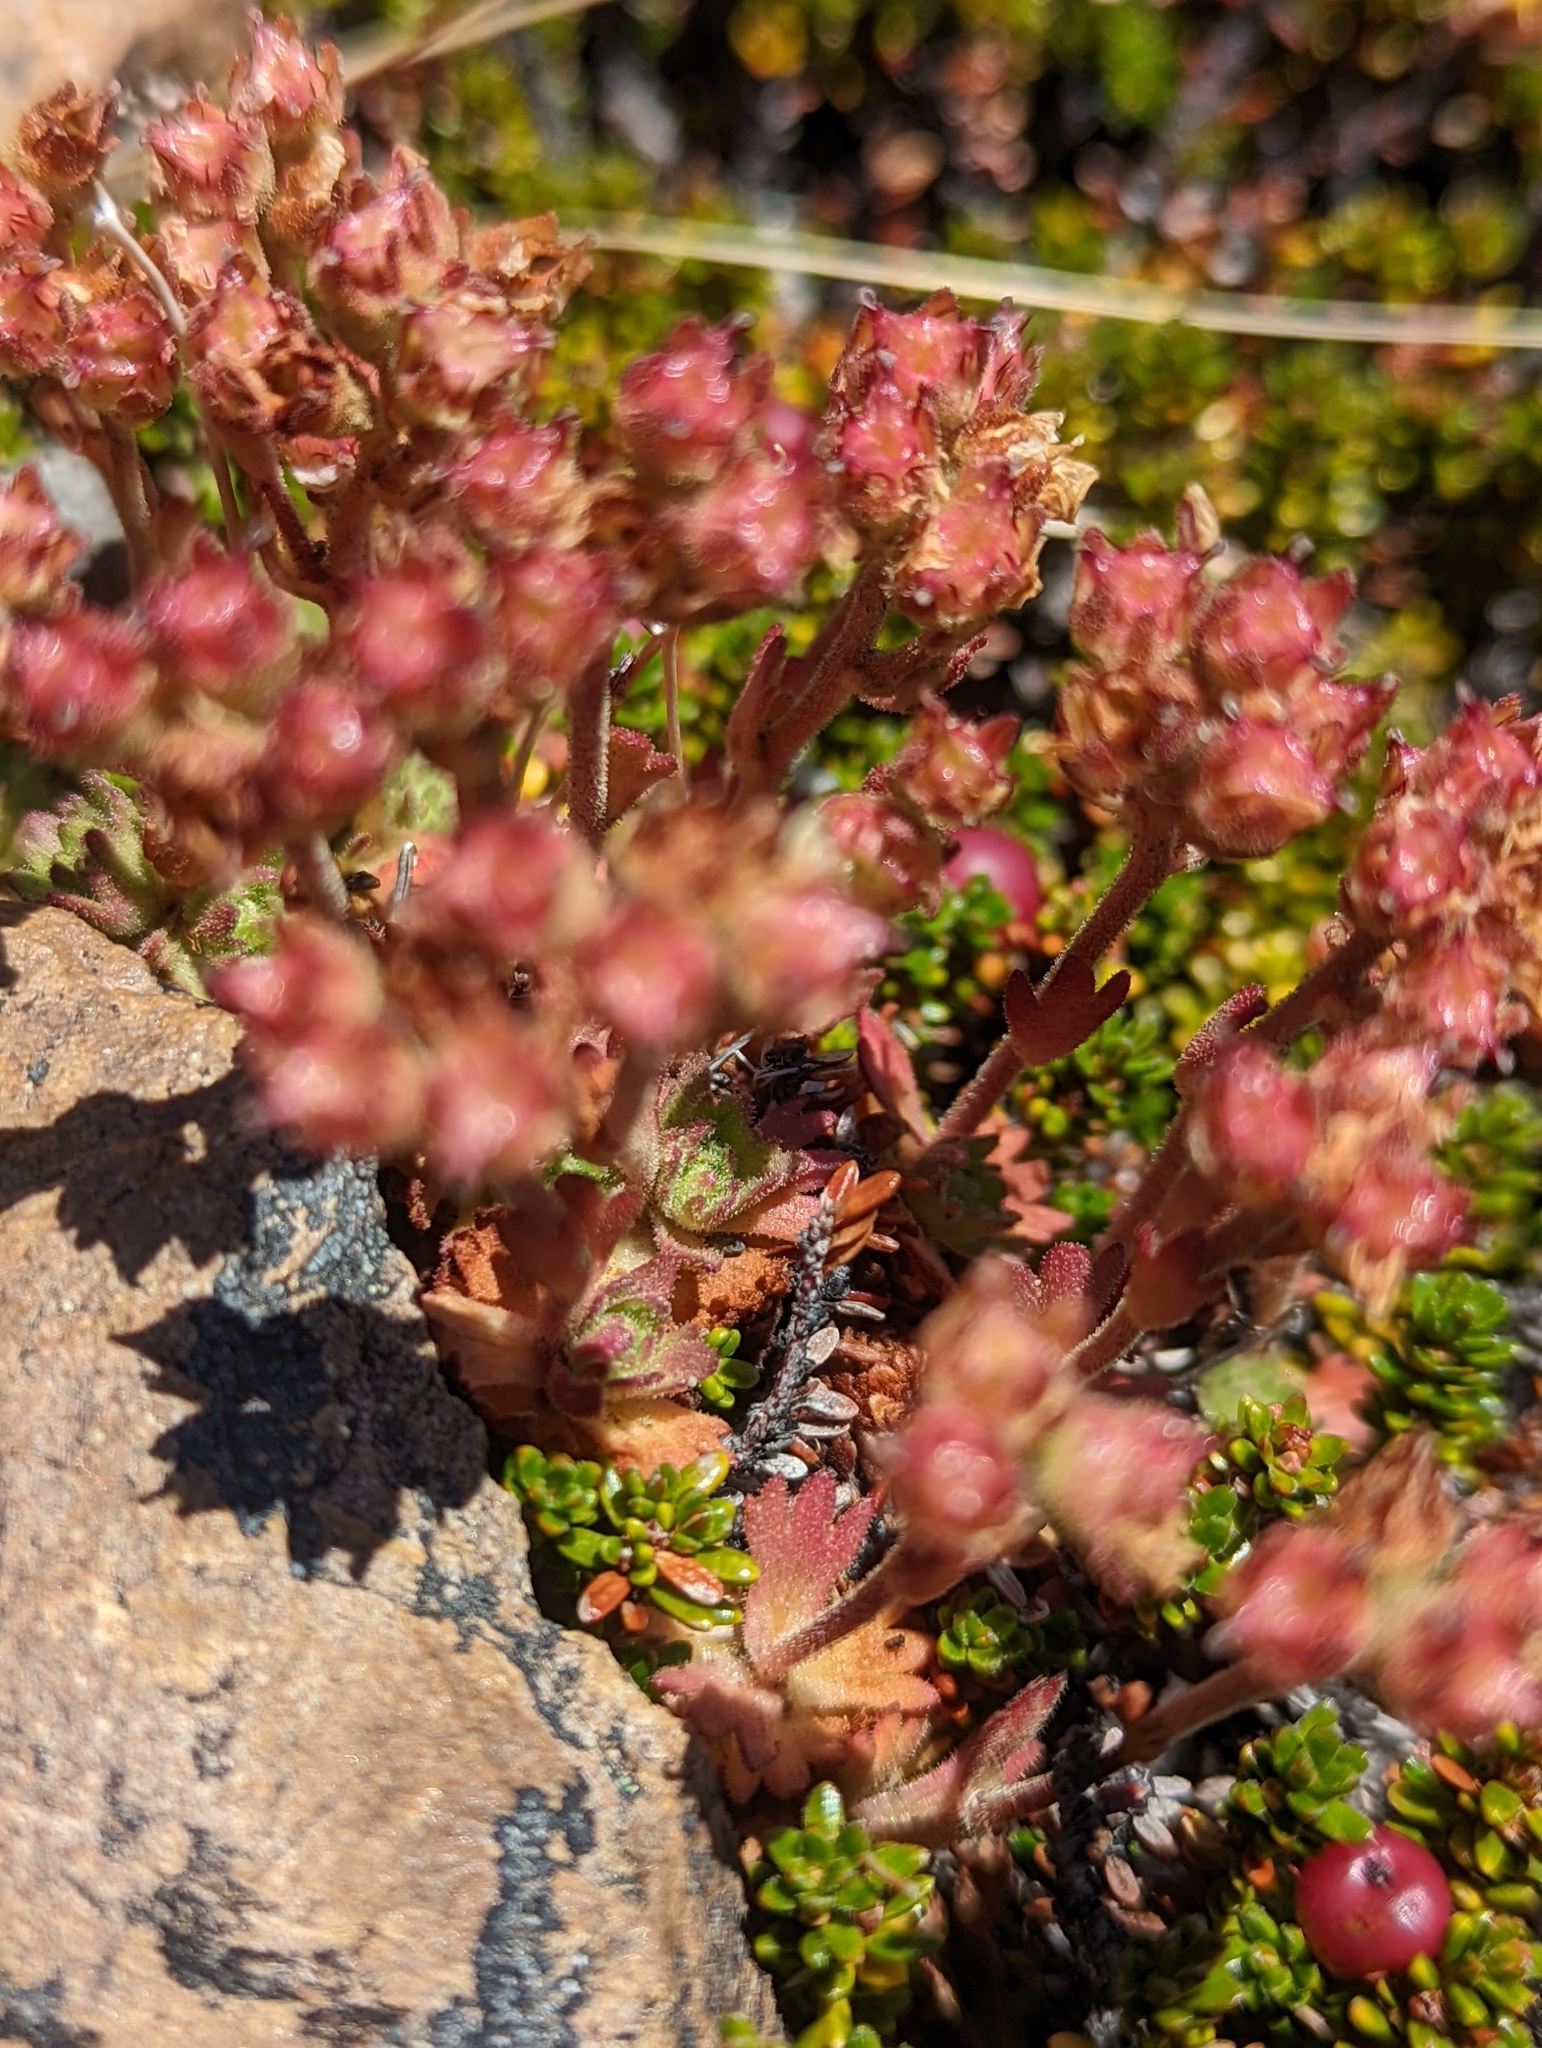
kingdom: Plantae
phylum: Tracheophyta
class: Magnoliopsida
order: Saxifragales
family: Saxifragaceae
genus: Saxifraga
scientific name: Saxifraga magellanica
